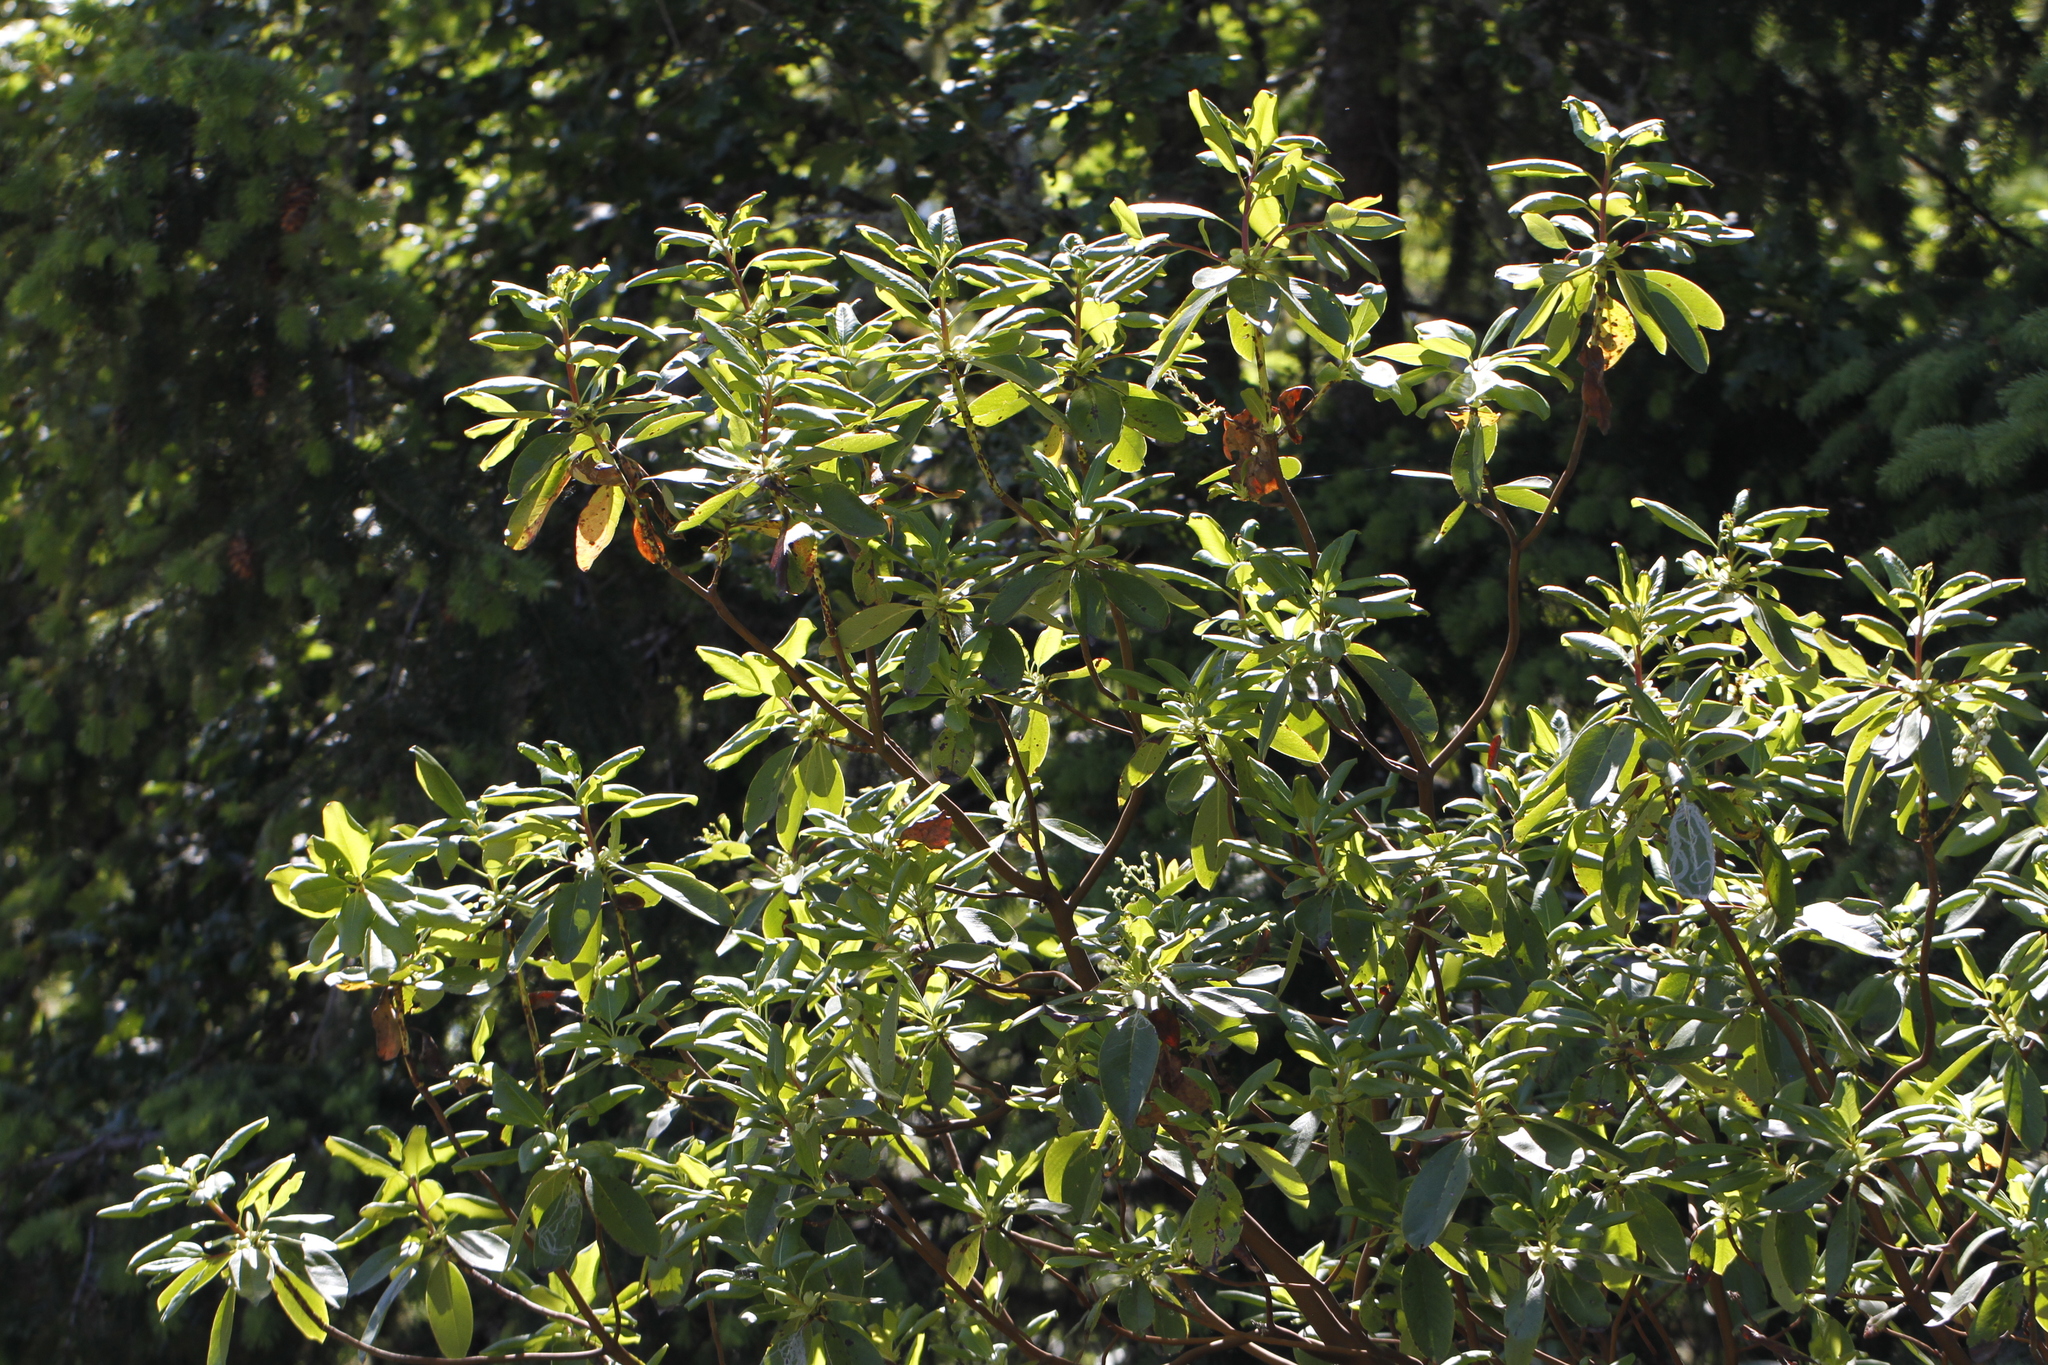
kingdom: Plantae
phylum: Tracheophyta
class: Magnoliopsida
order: Ericales
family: Ericaceae
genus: Arbutus
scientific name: Arbutus menziesii
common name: Pacific madrone
